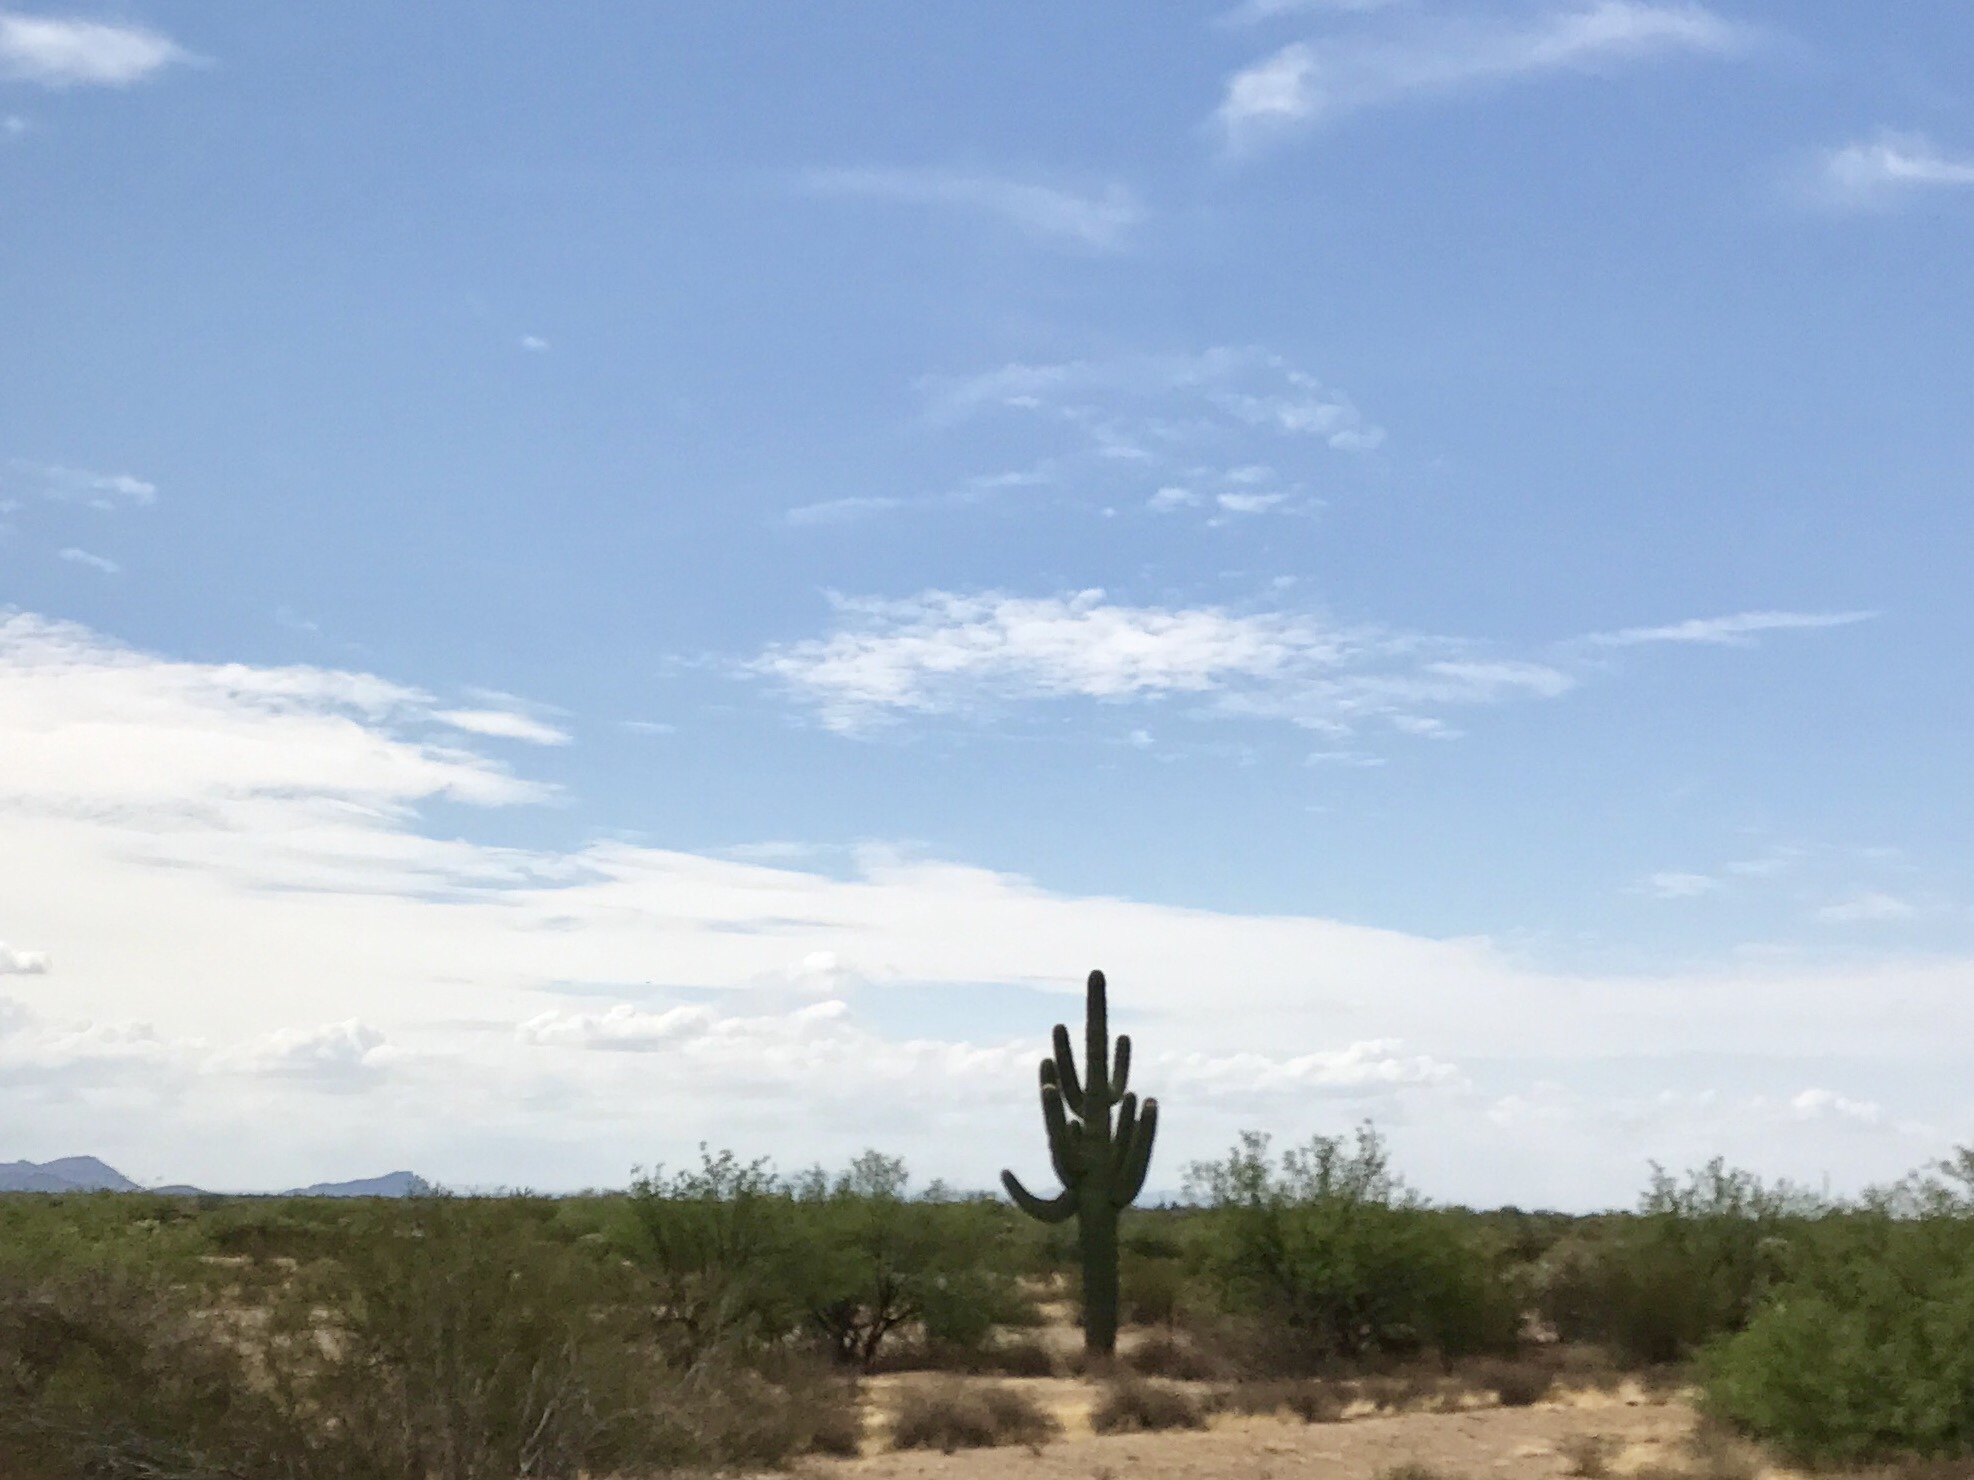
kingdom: Plantae
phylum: Tracheophyta
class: Magnoliopsida
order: Caryophyllales
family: Cactaceae
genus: Carnegiea
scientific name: Carnegiea gigantea
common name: Saguaro
